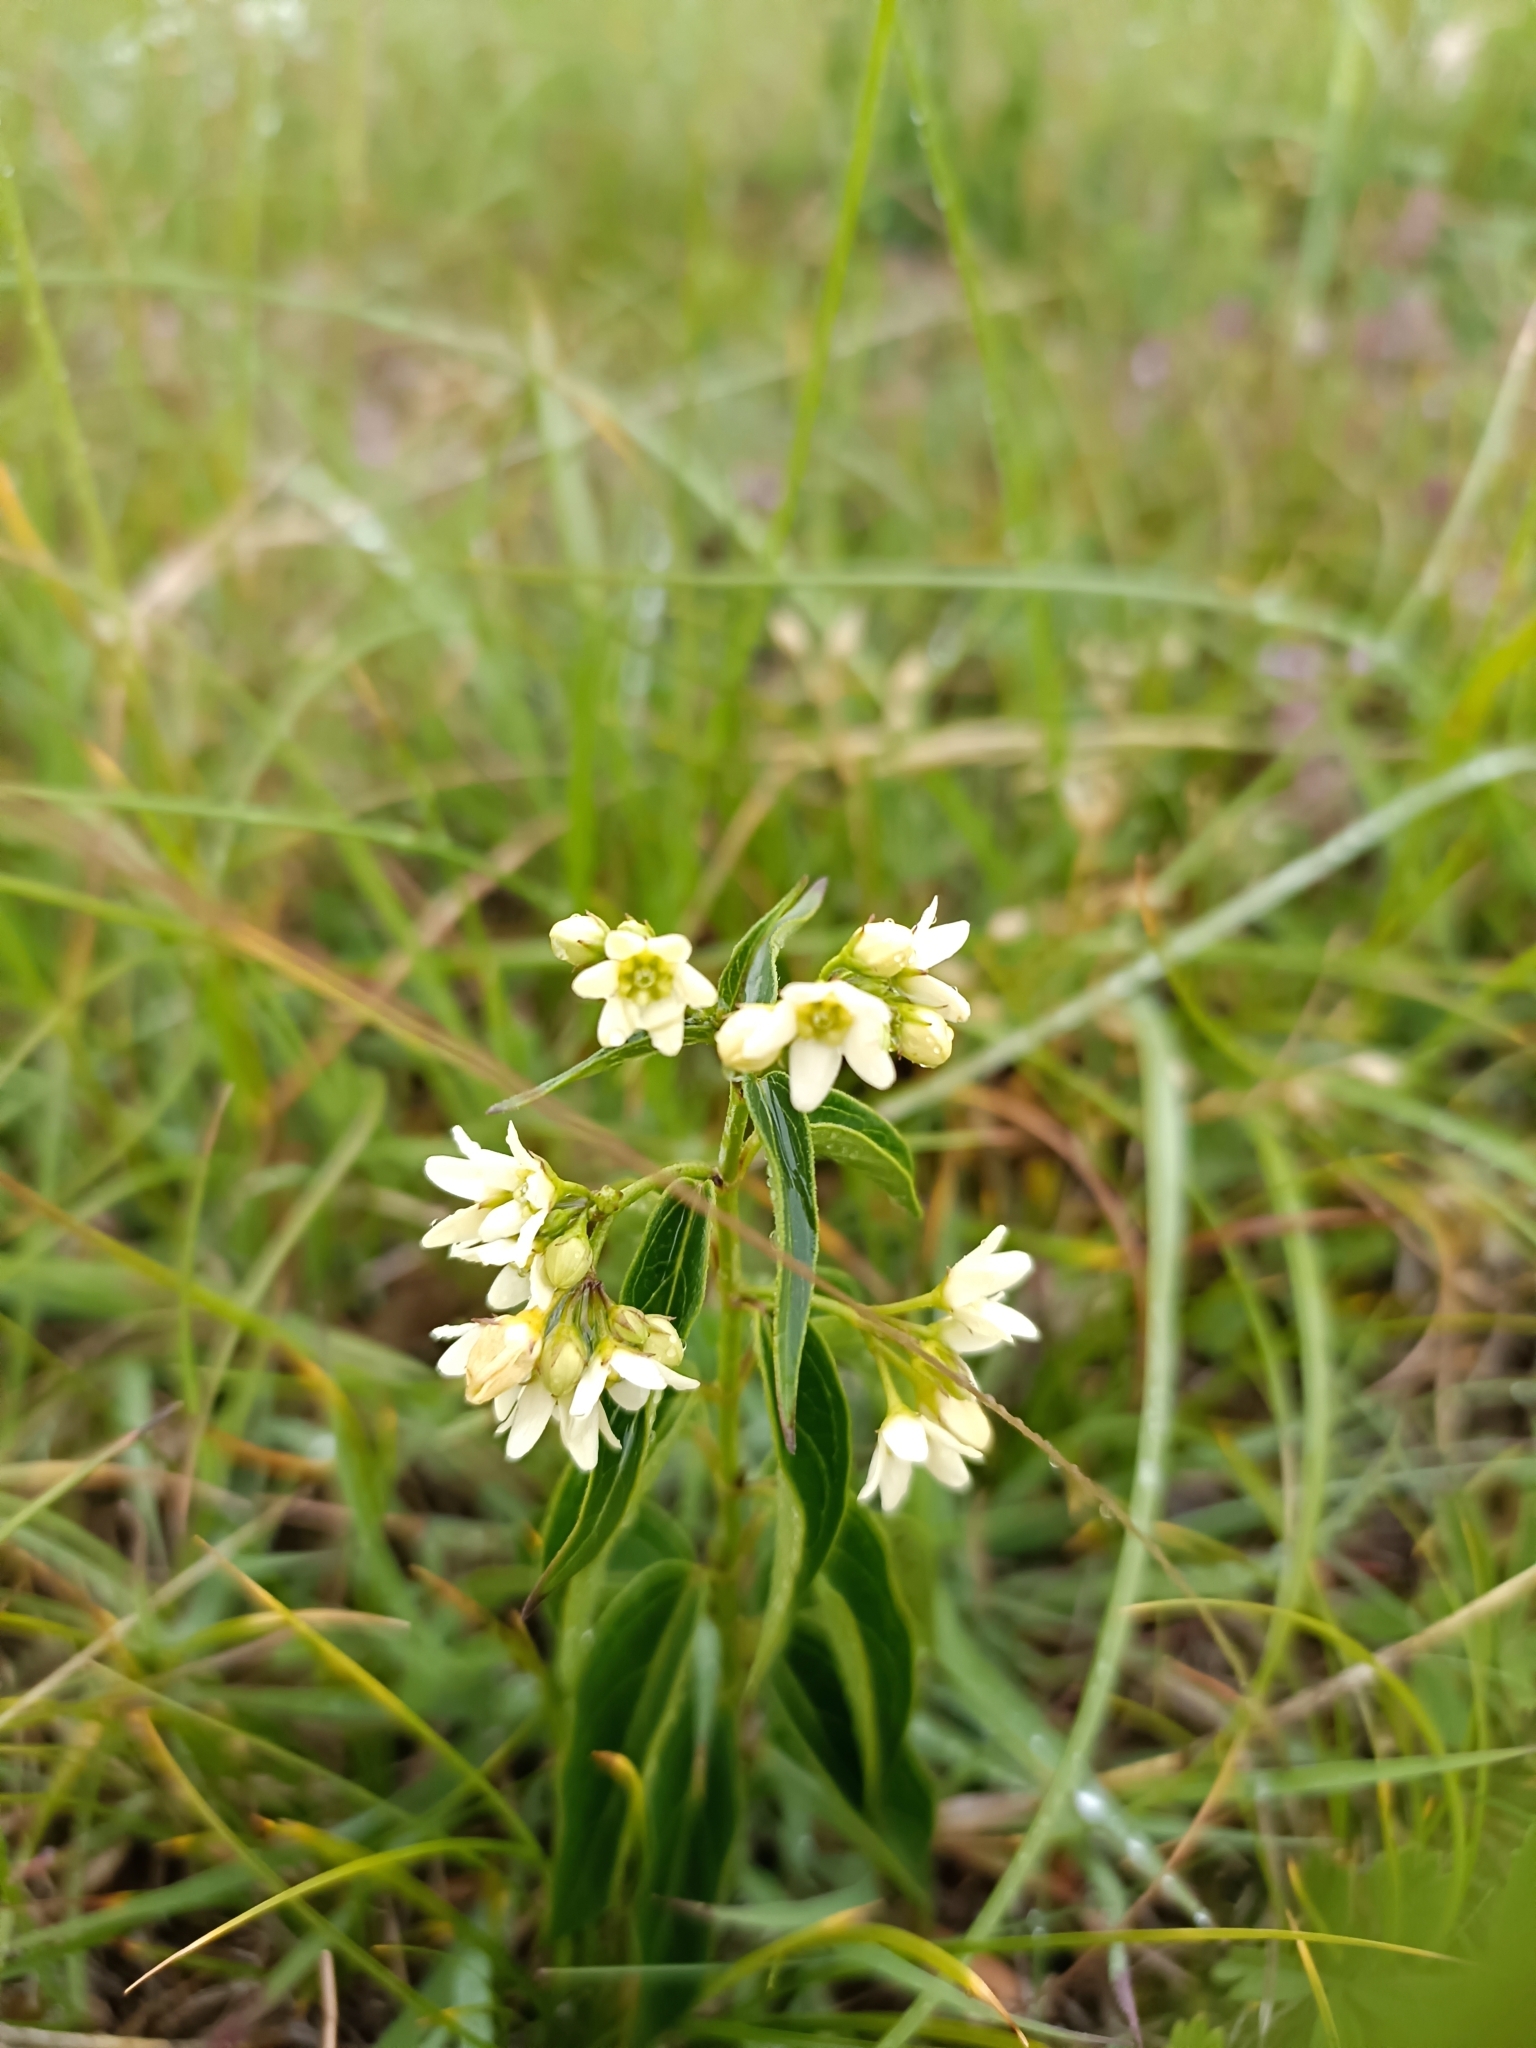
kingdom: Plantae
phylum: Tracheophyta
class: Magnoliopsida
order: Gentianales
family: Apocynaceae
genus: Vincetoxicum
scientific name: Vincetoxicum hirundinaria
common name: White swallowwort
